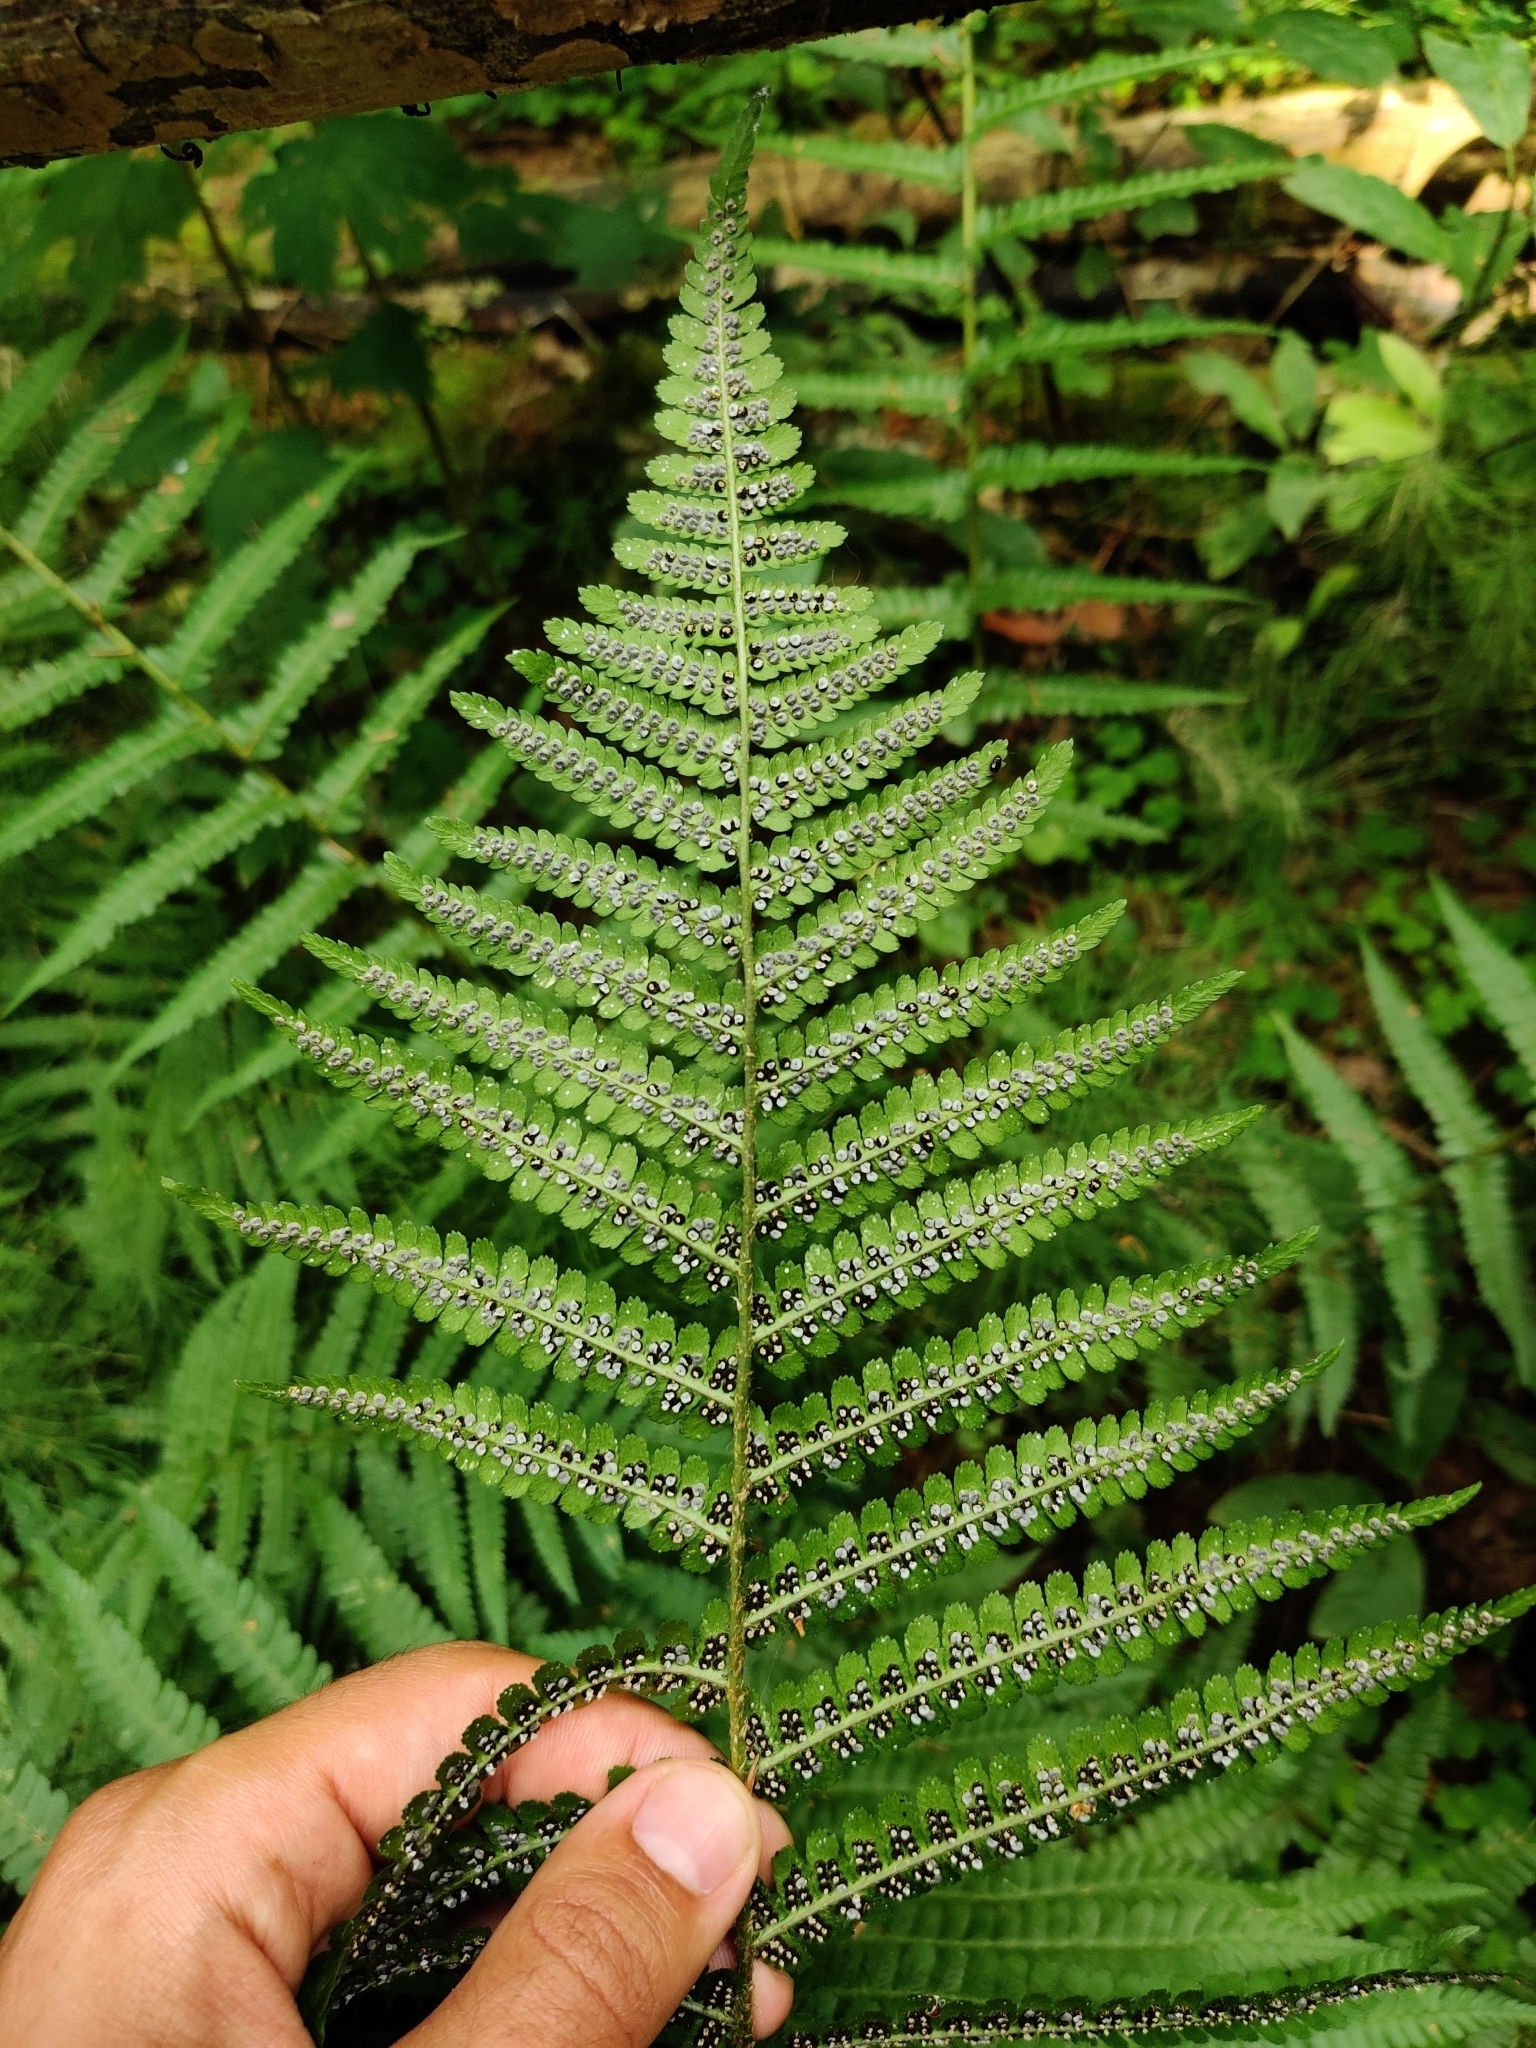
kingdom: Plantae
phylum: Tracheophyta
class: Polypodiopsida
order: Polypodiales
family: Dryopteridaceae
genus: Dryopteris
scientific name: Dryopteris filix-mas
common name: Male fern
